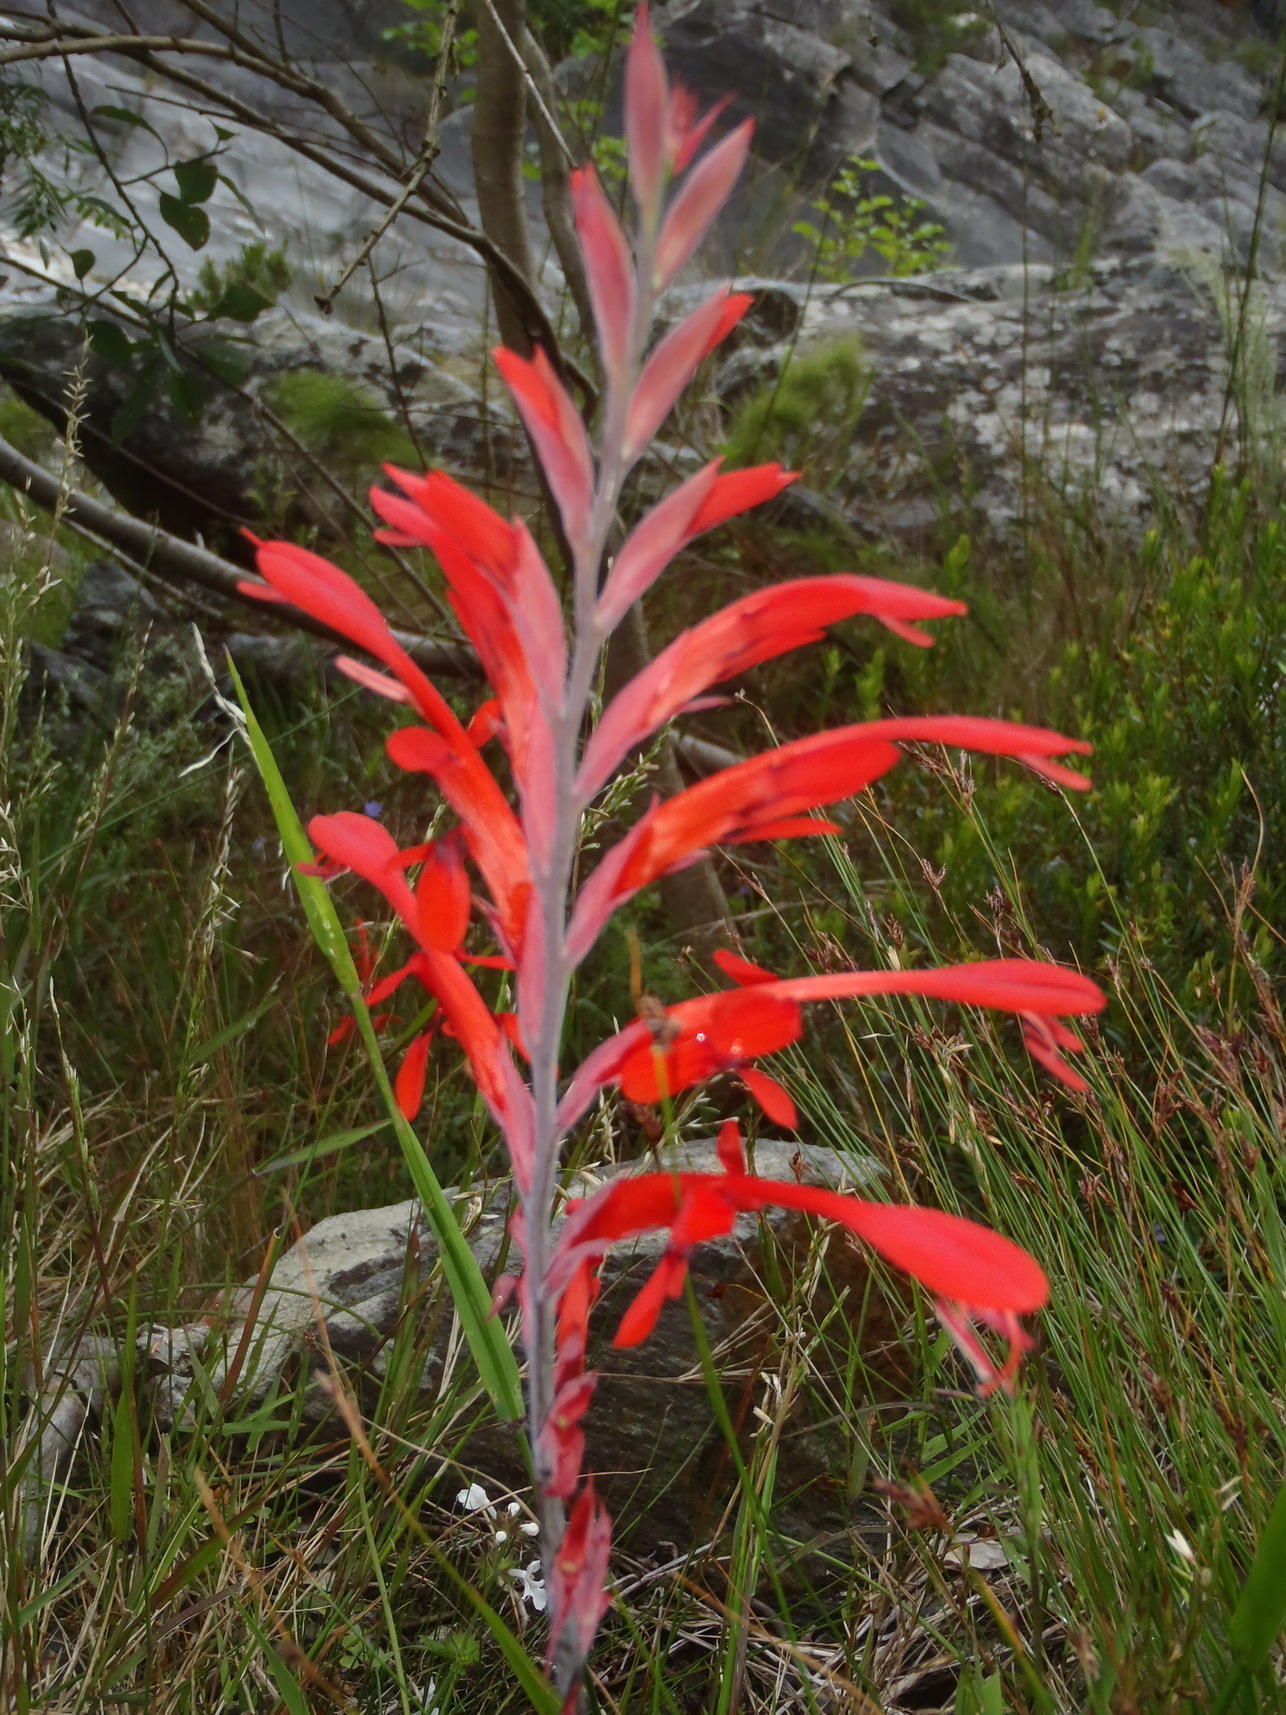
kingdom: Plantae
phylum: Tracheophyta
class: Liliopsida
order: Asparagales
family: Iridaceae
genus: Tritoniopsis
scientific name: Tritoniopsis caffra
